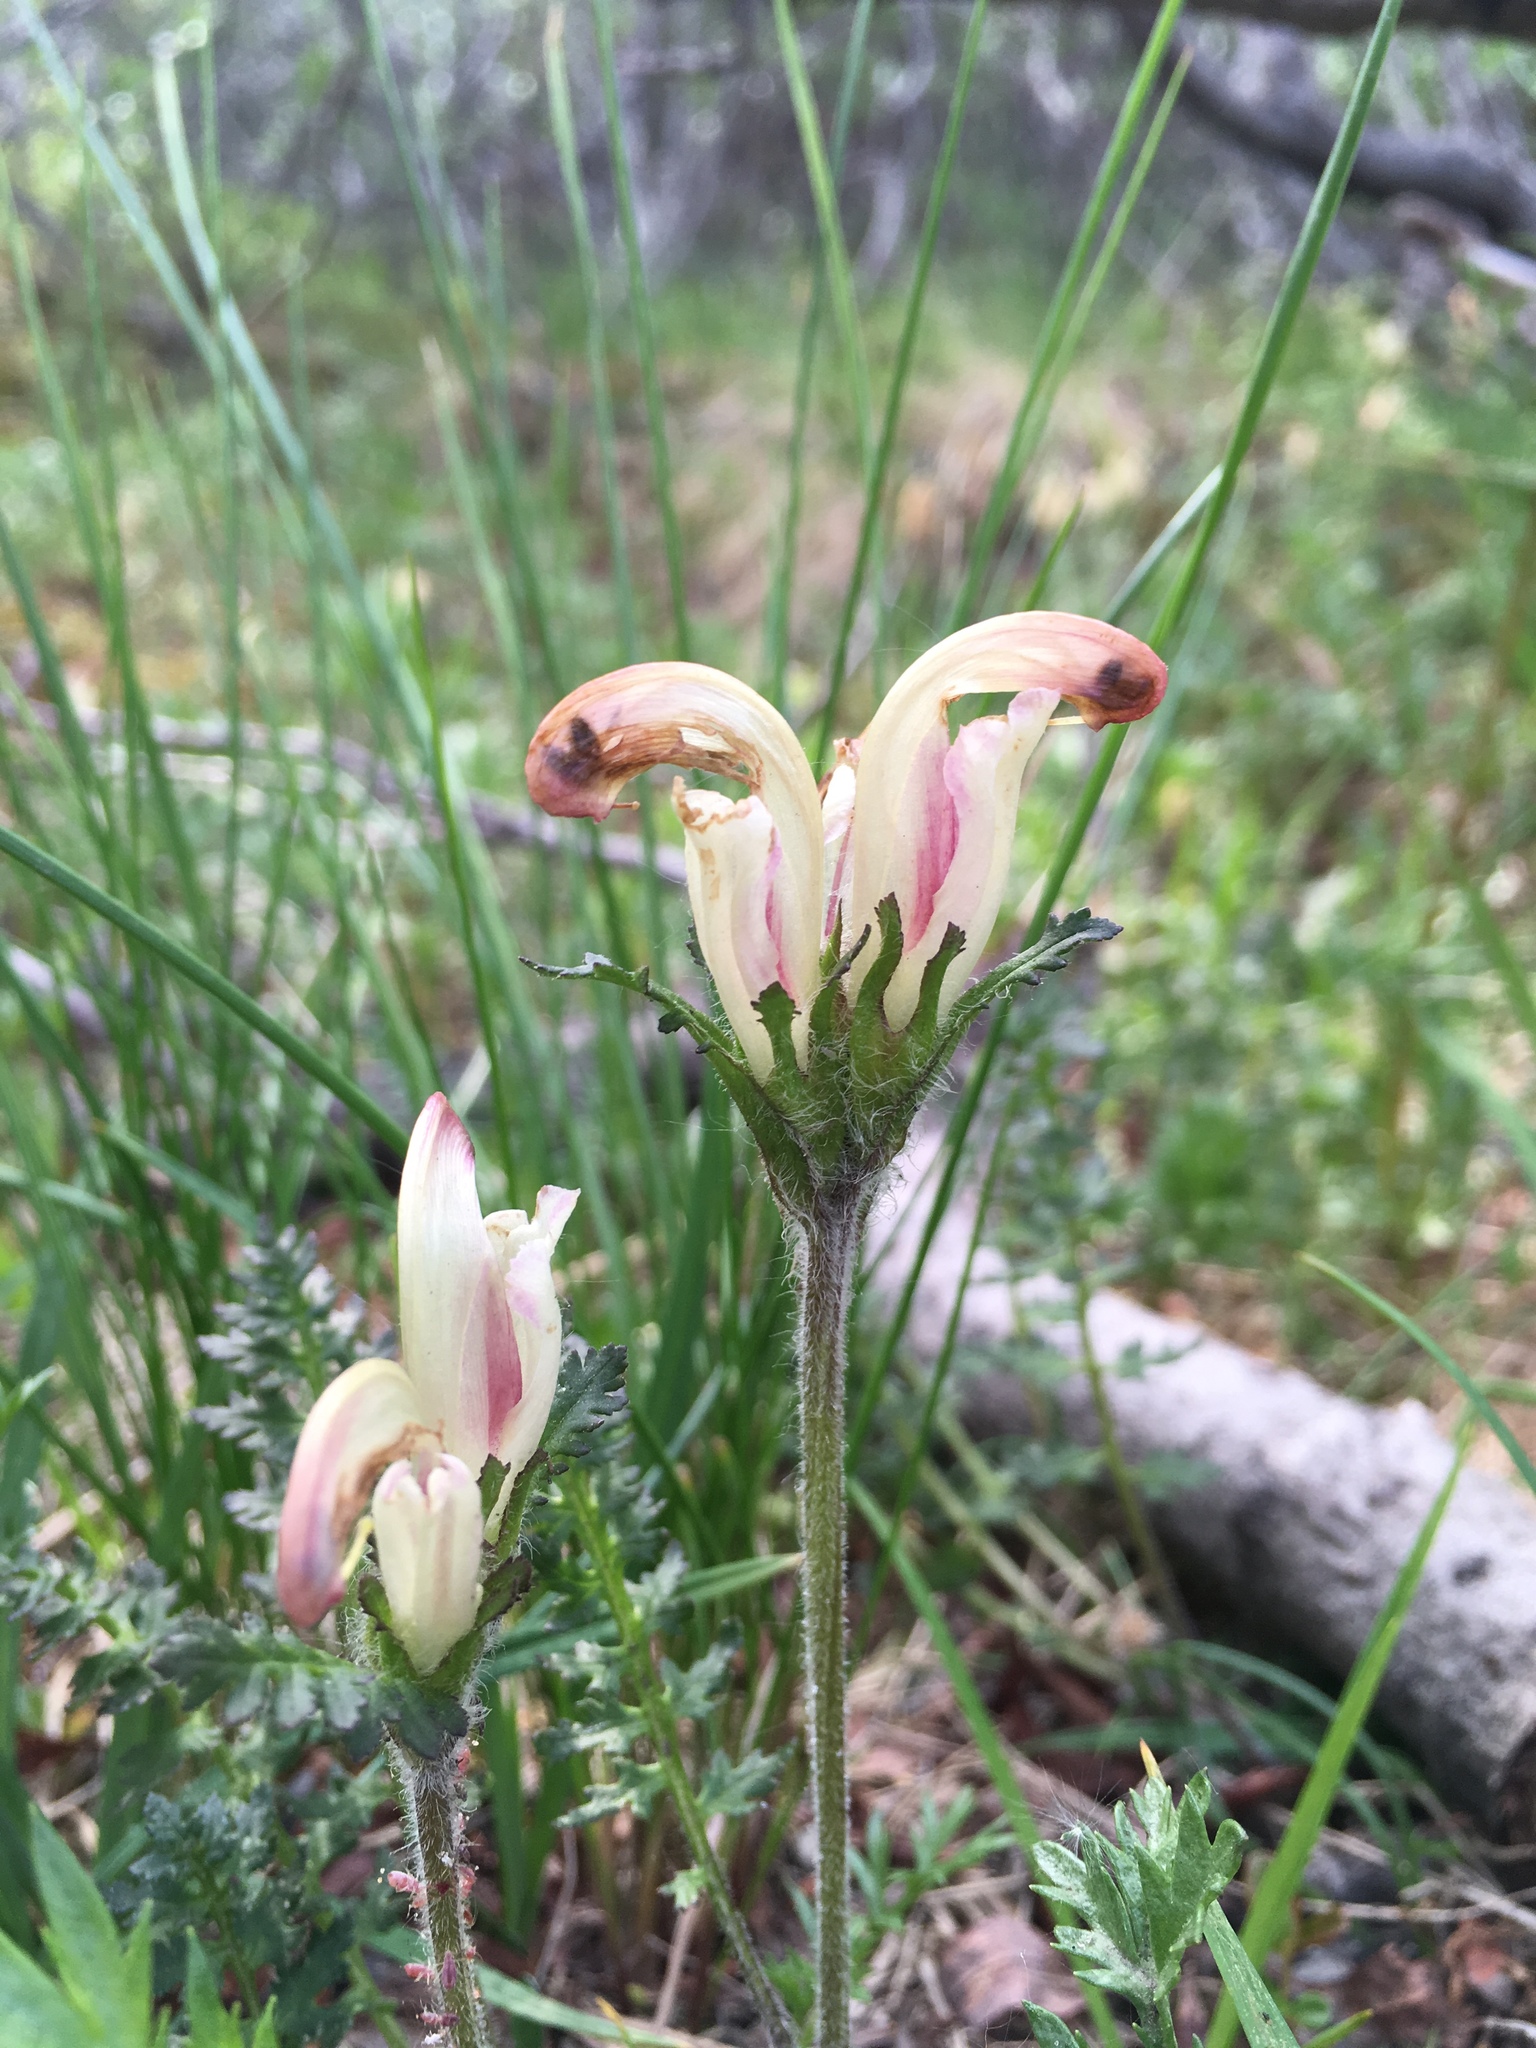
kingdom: Plantae
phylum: Tracheophyta
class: Magnoliopsida
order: Lamiales
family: Orobanchaceae
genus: Pedicularis
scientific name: Pedicularis capitata
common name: Capitate lousewort
